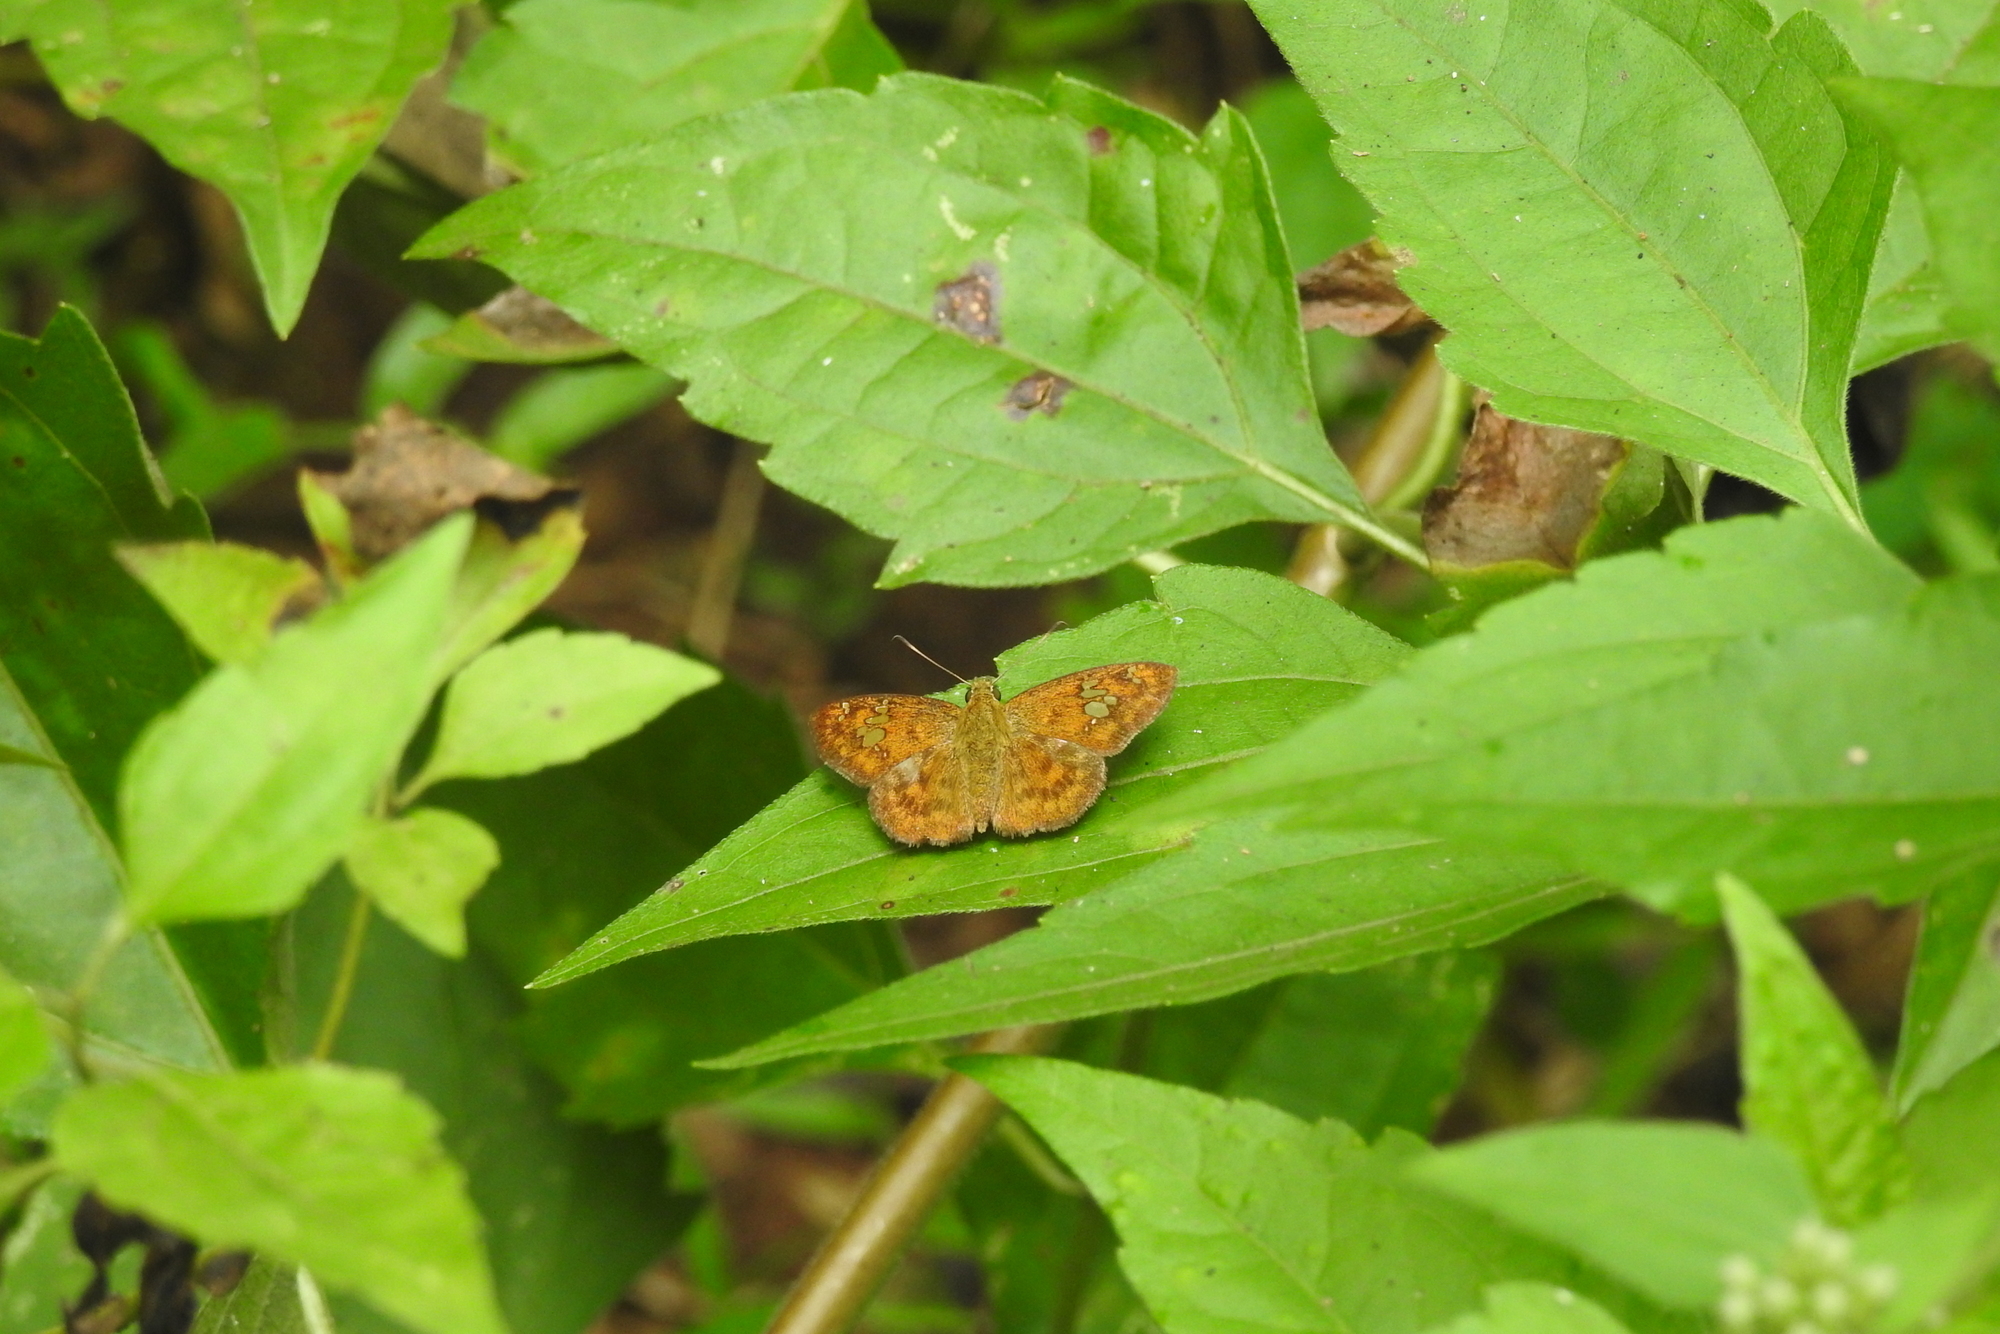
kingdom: Animalia
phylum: Arthropoda
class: Insecta
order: Lepidoptera
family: Hesperiidae
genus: Pseudocoladenia
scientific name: Pseudocoladenia dan
